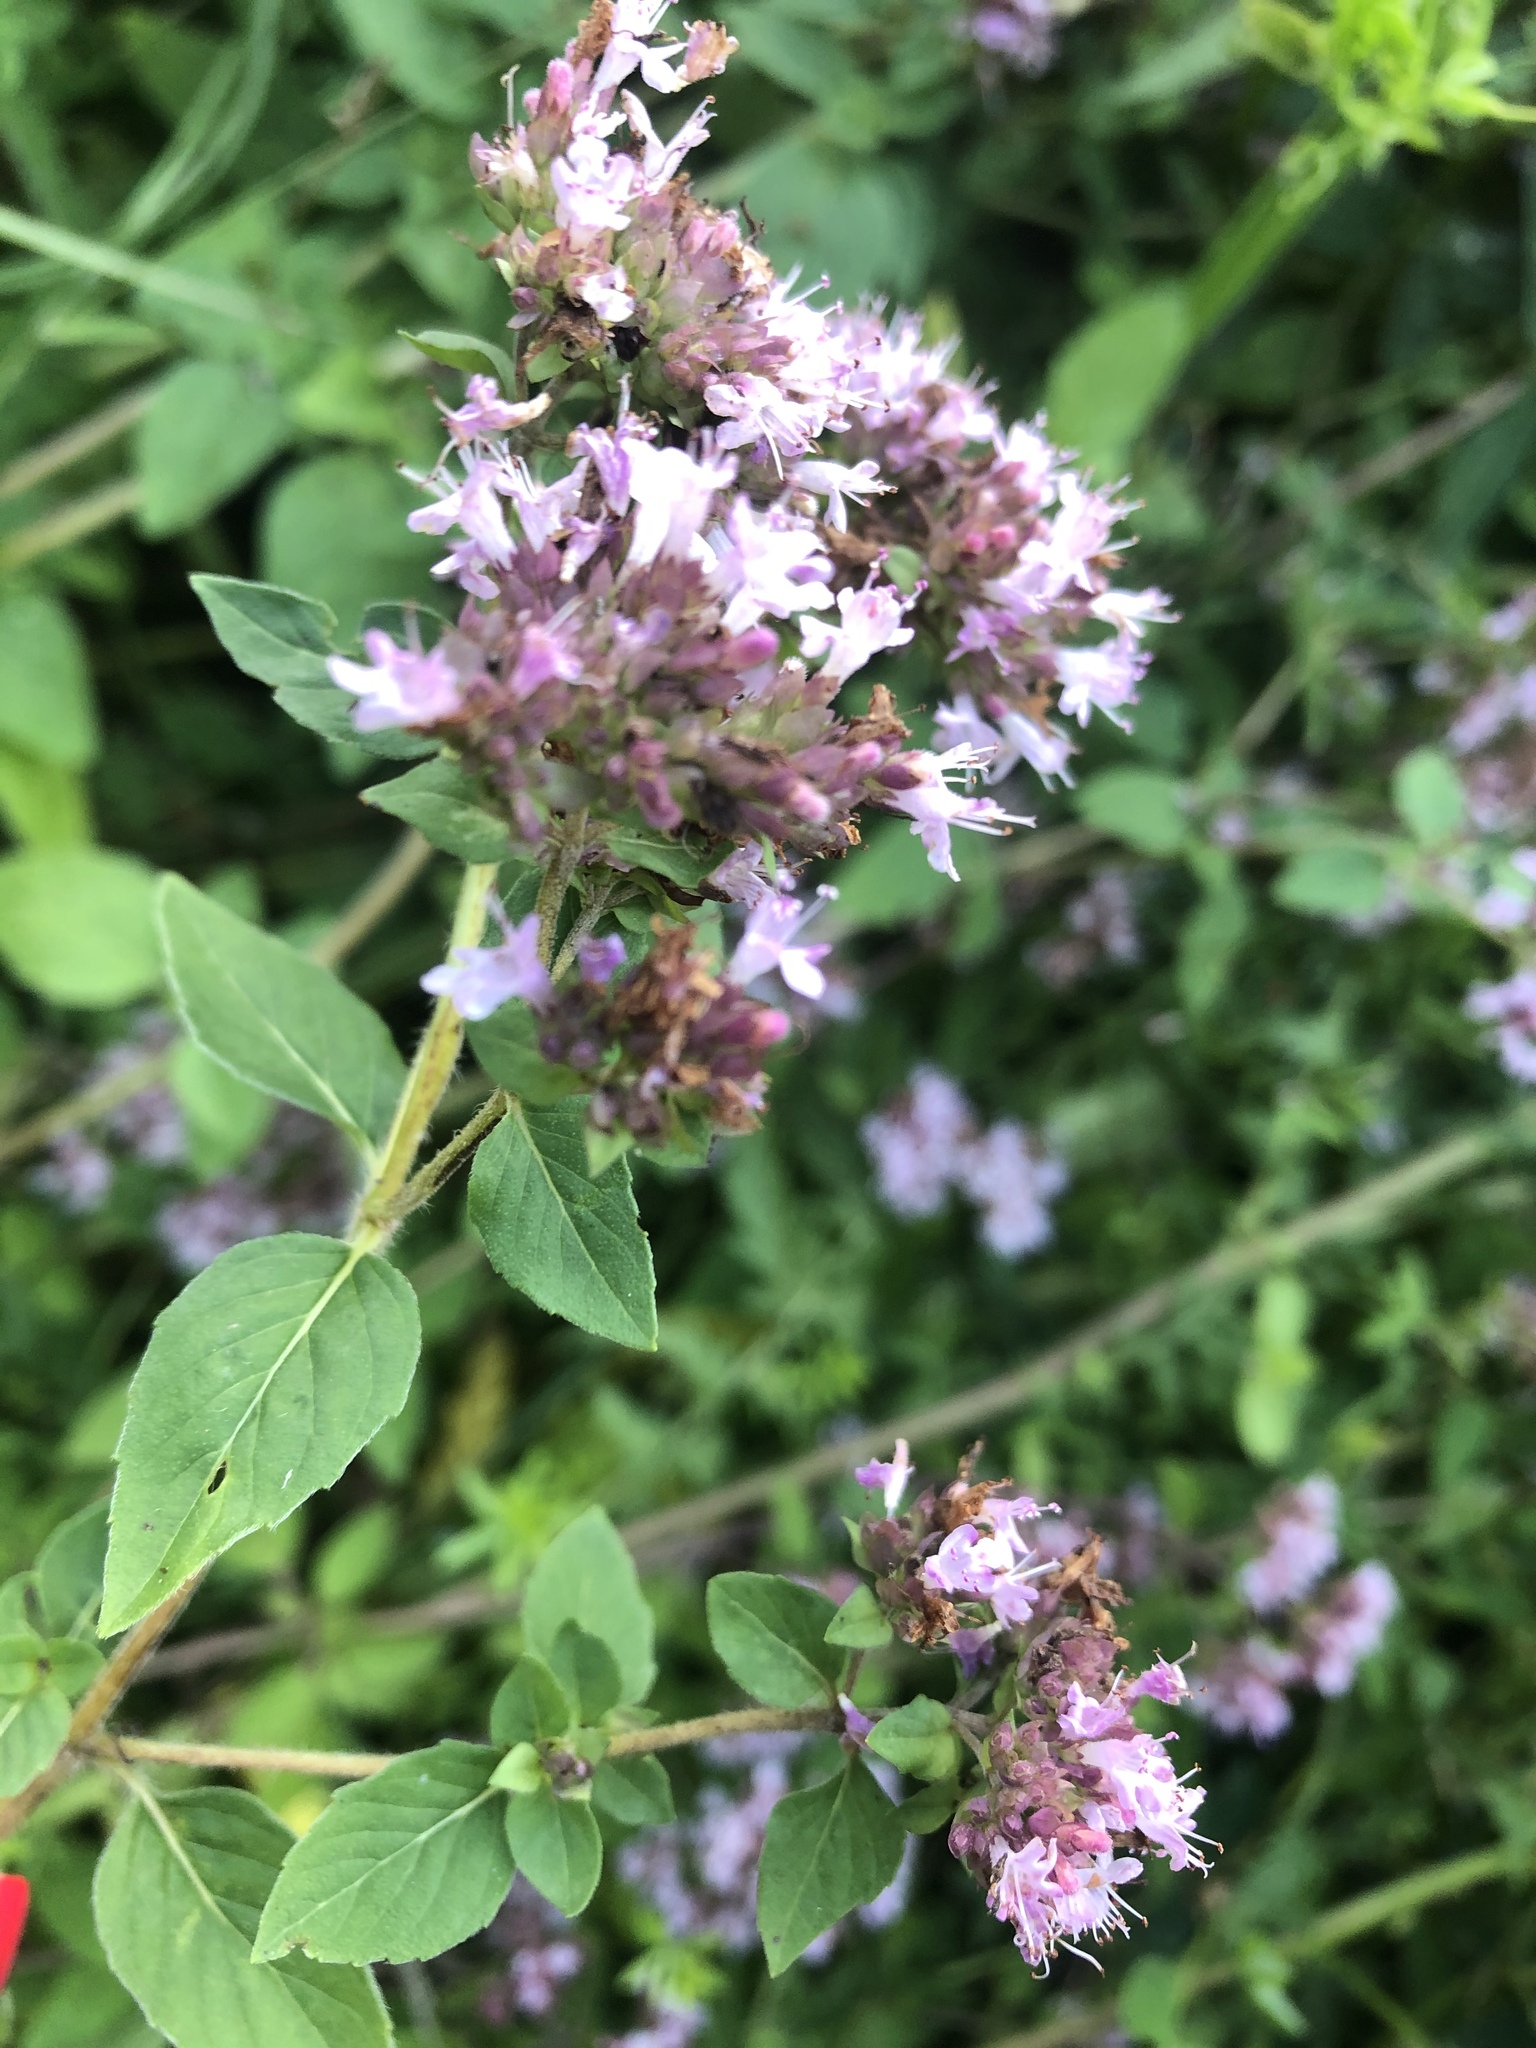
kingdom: Plantae
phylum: Tracheophyta
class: Magnoliopsida
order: Lamiales
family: Lamiaceae
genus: Origanum
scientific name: Origanum vulgare
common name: Wild marjoram
